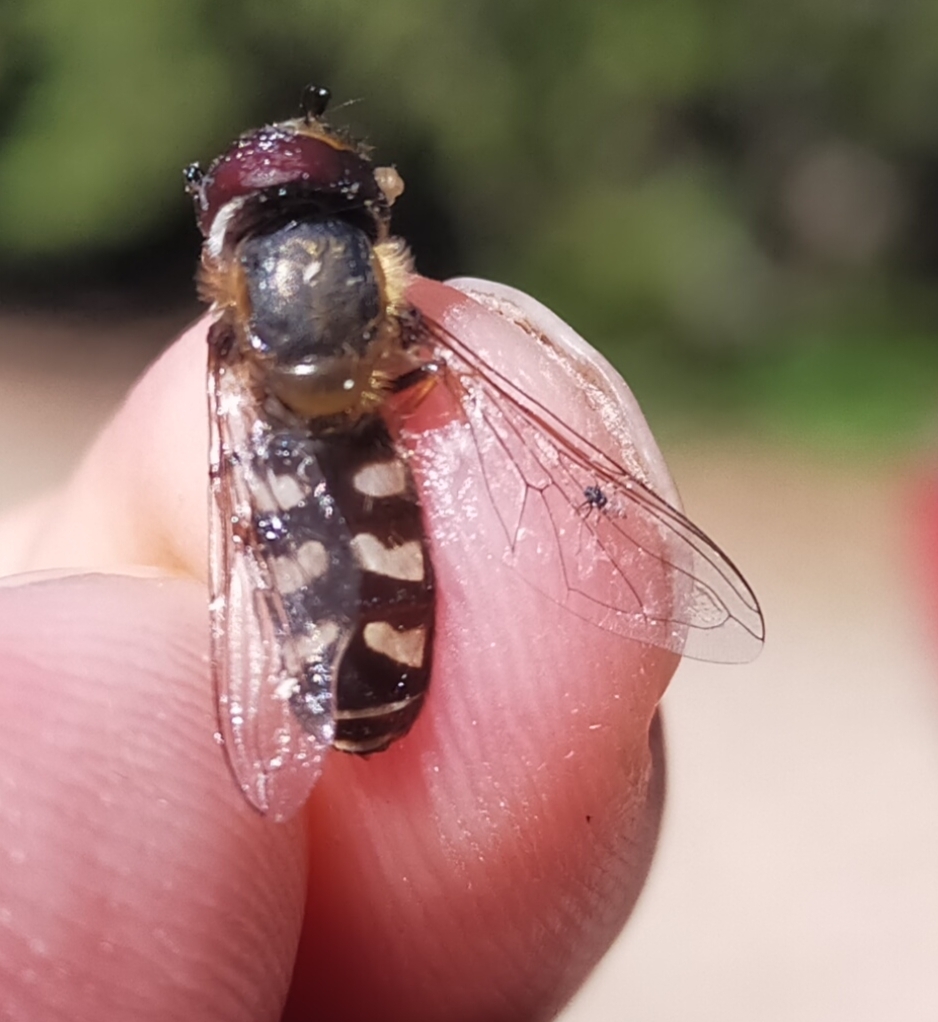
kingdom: Animalia
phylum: Arthropoda
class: Insecta
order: Diptera
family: Syrphidae
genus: Scaeva
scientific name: Scaeva pyrastri
